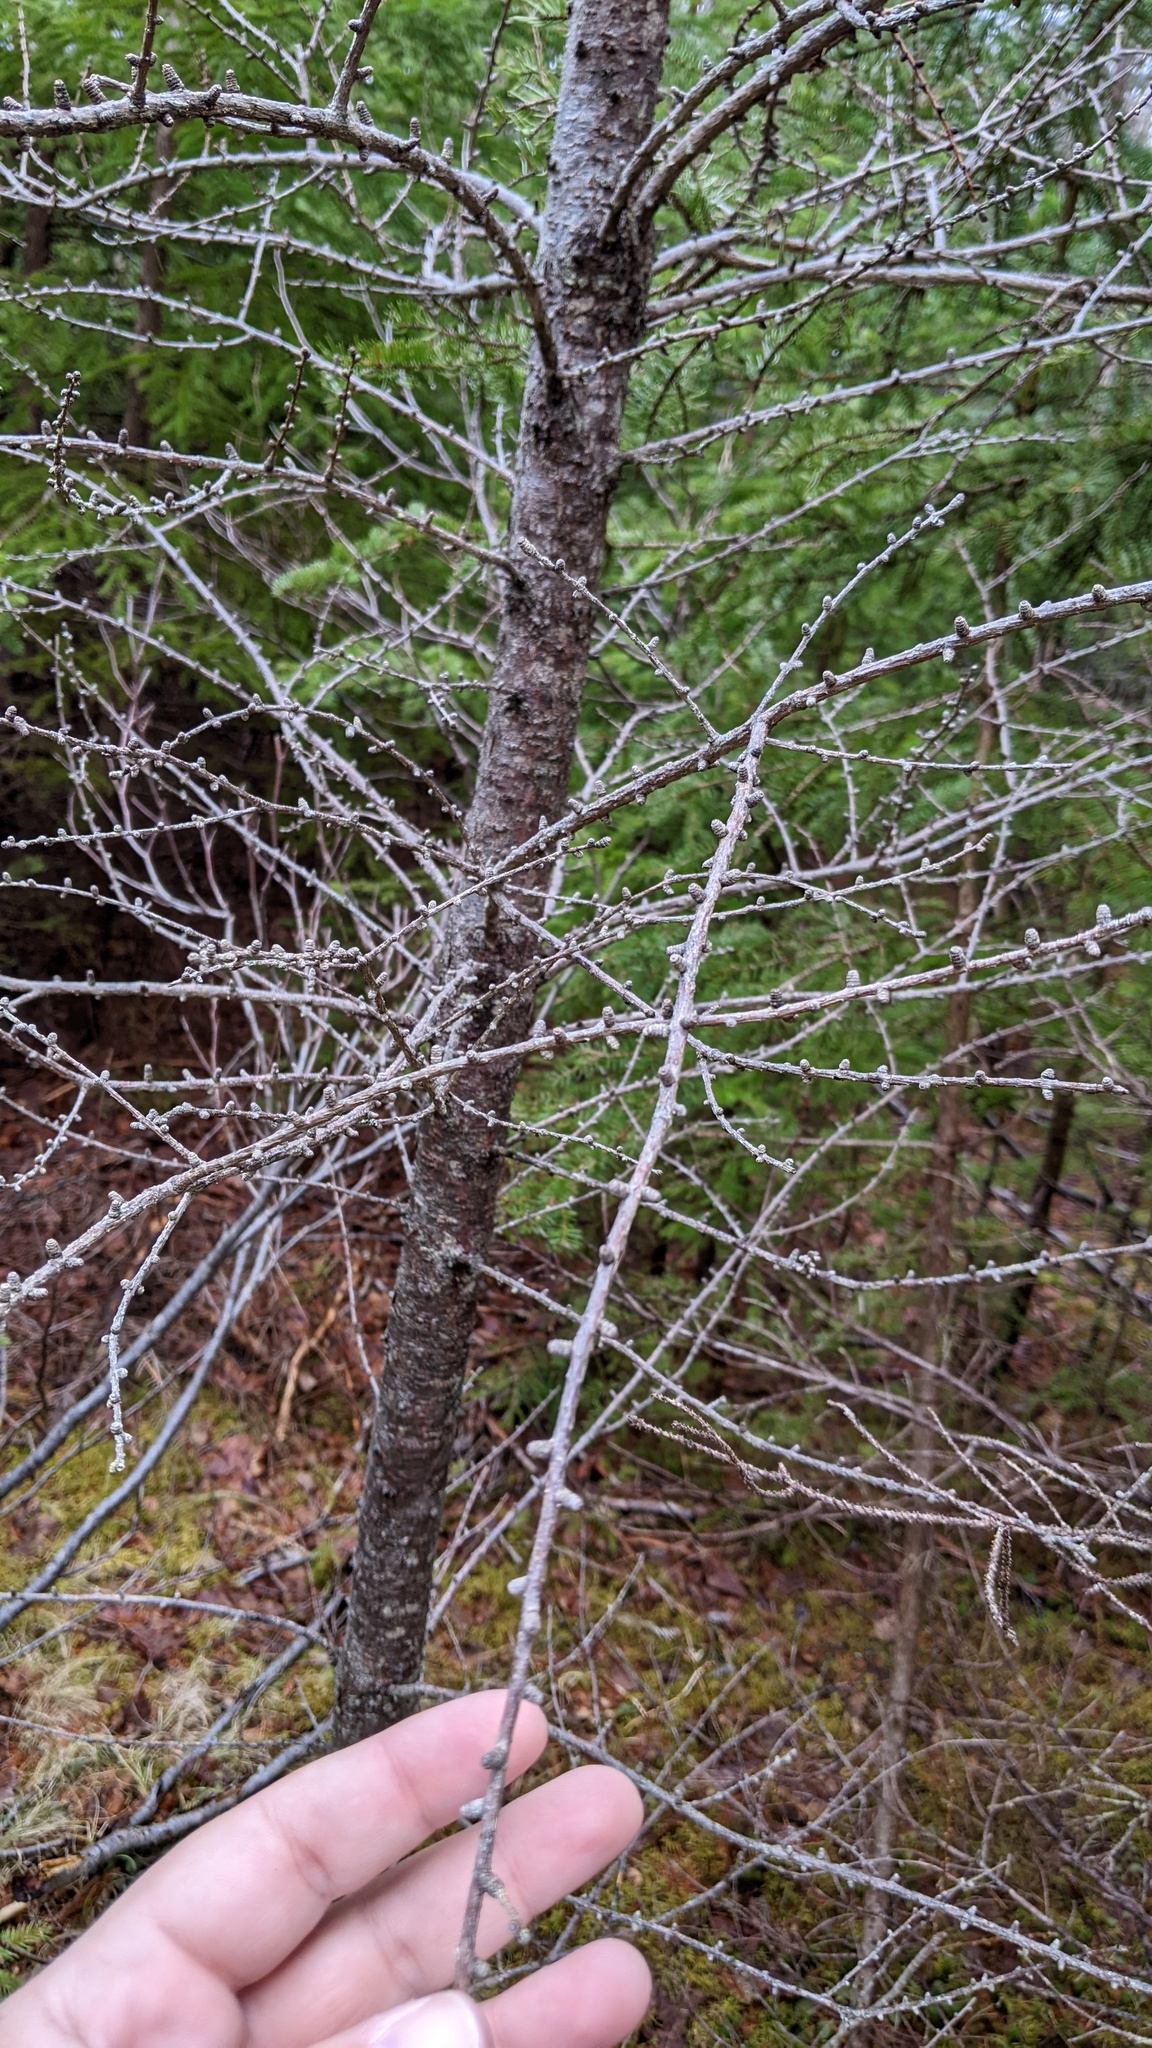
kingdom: Plantae
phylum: Tracheophyta
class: Pinopsida
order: Pinales
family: Pinaceae
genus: Larix
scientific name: Larix laricina
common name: American larch
